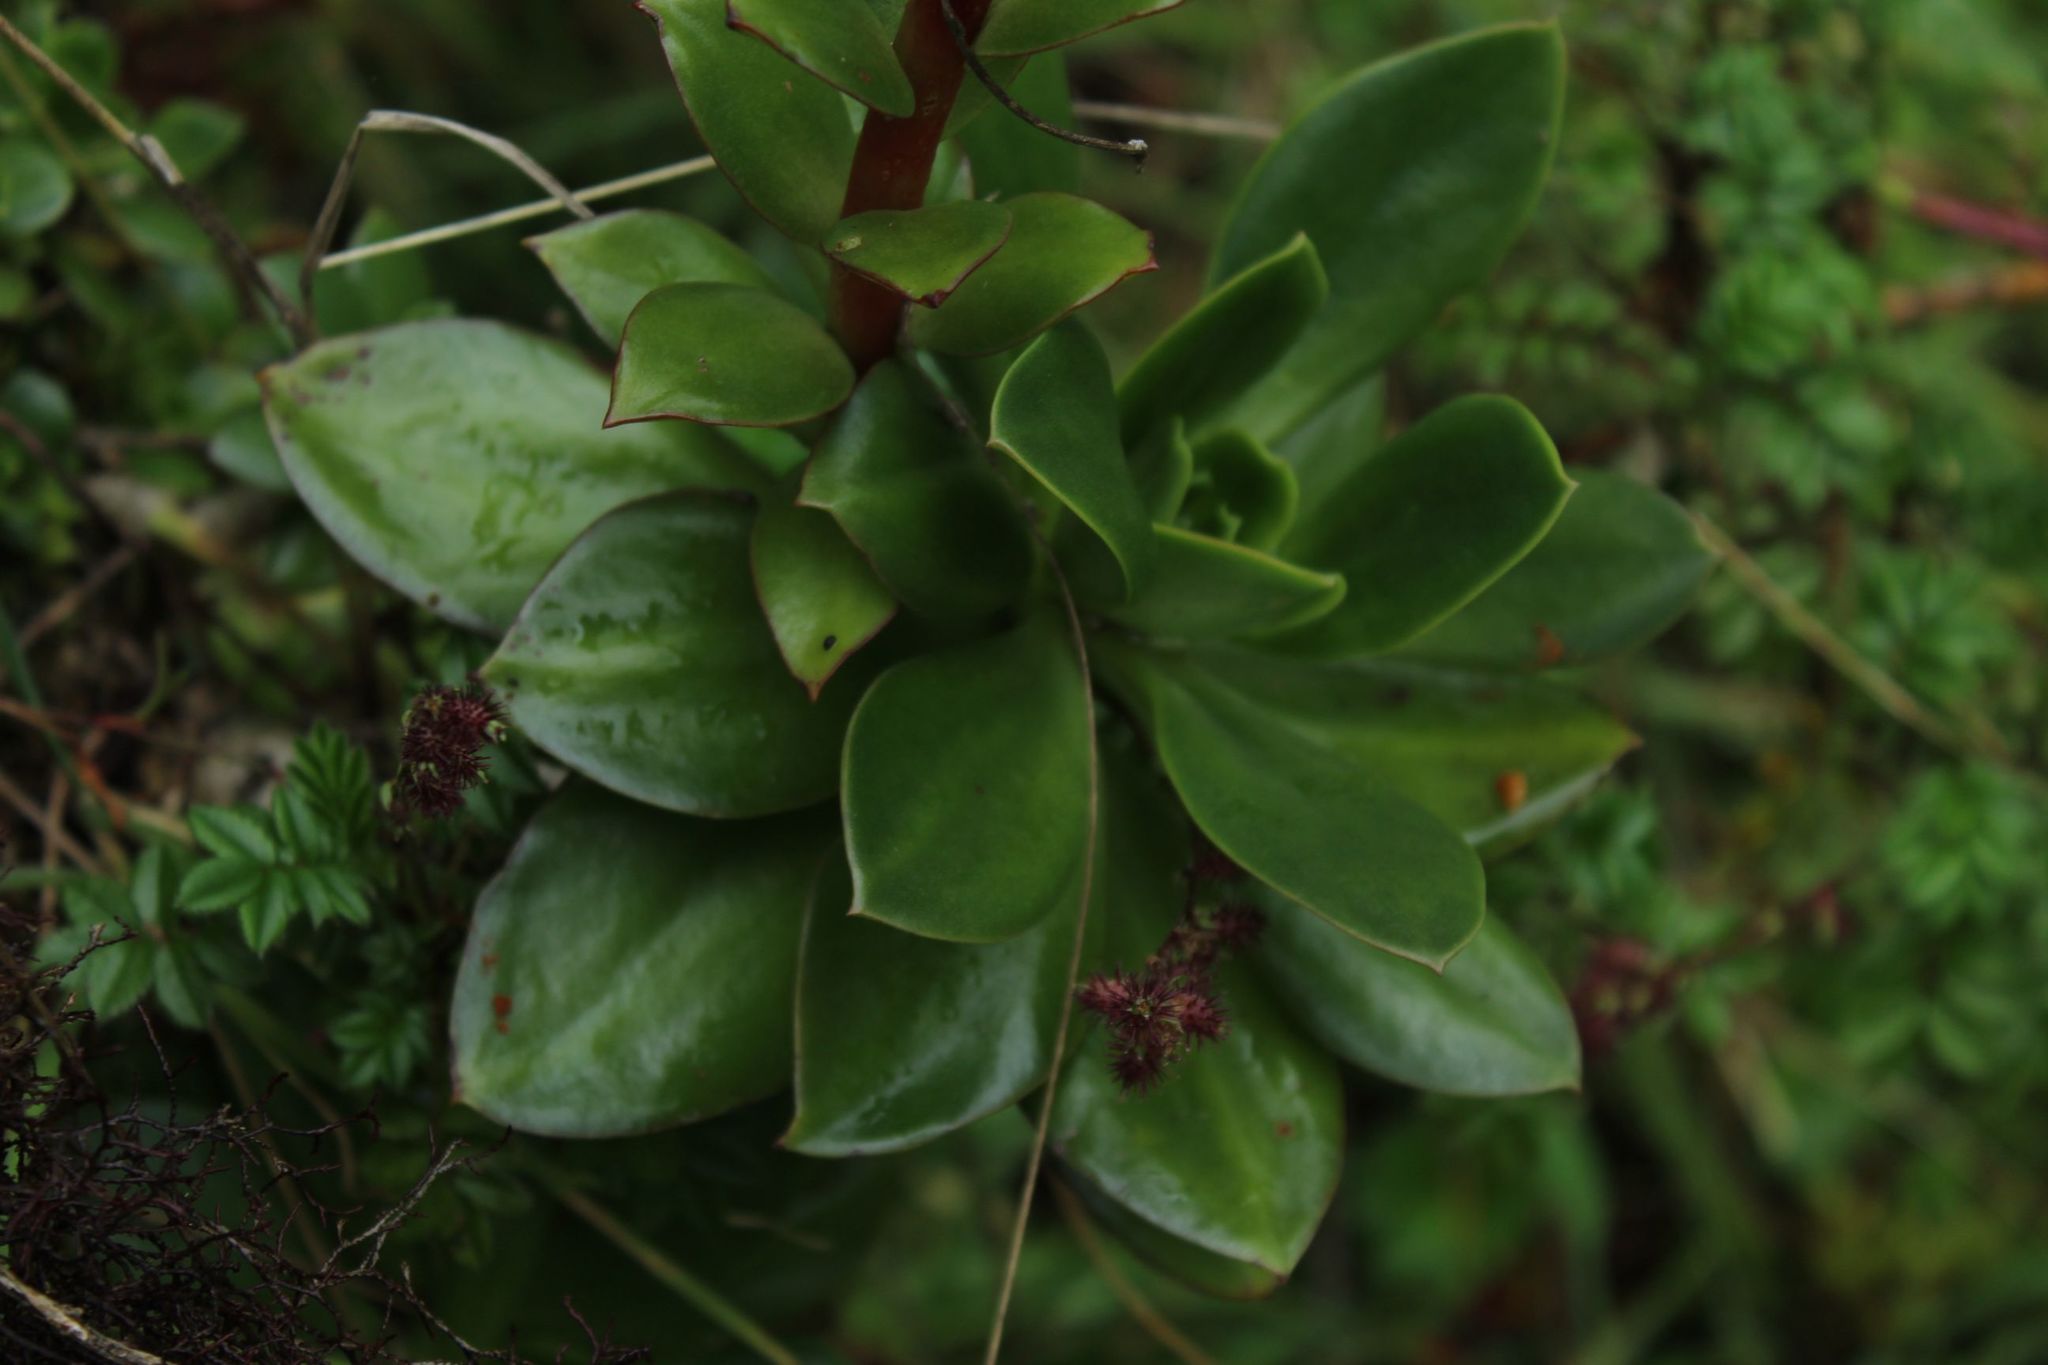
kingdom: Plantae
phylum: Tracheophyta
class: Magnoliopsida
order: Saxifragales
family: Crassulaceae
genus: Echeveria
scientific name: Echeveria bicolor
